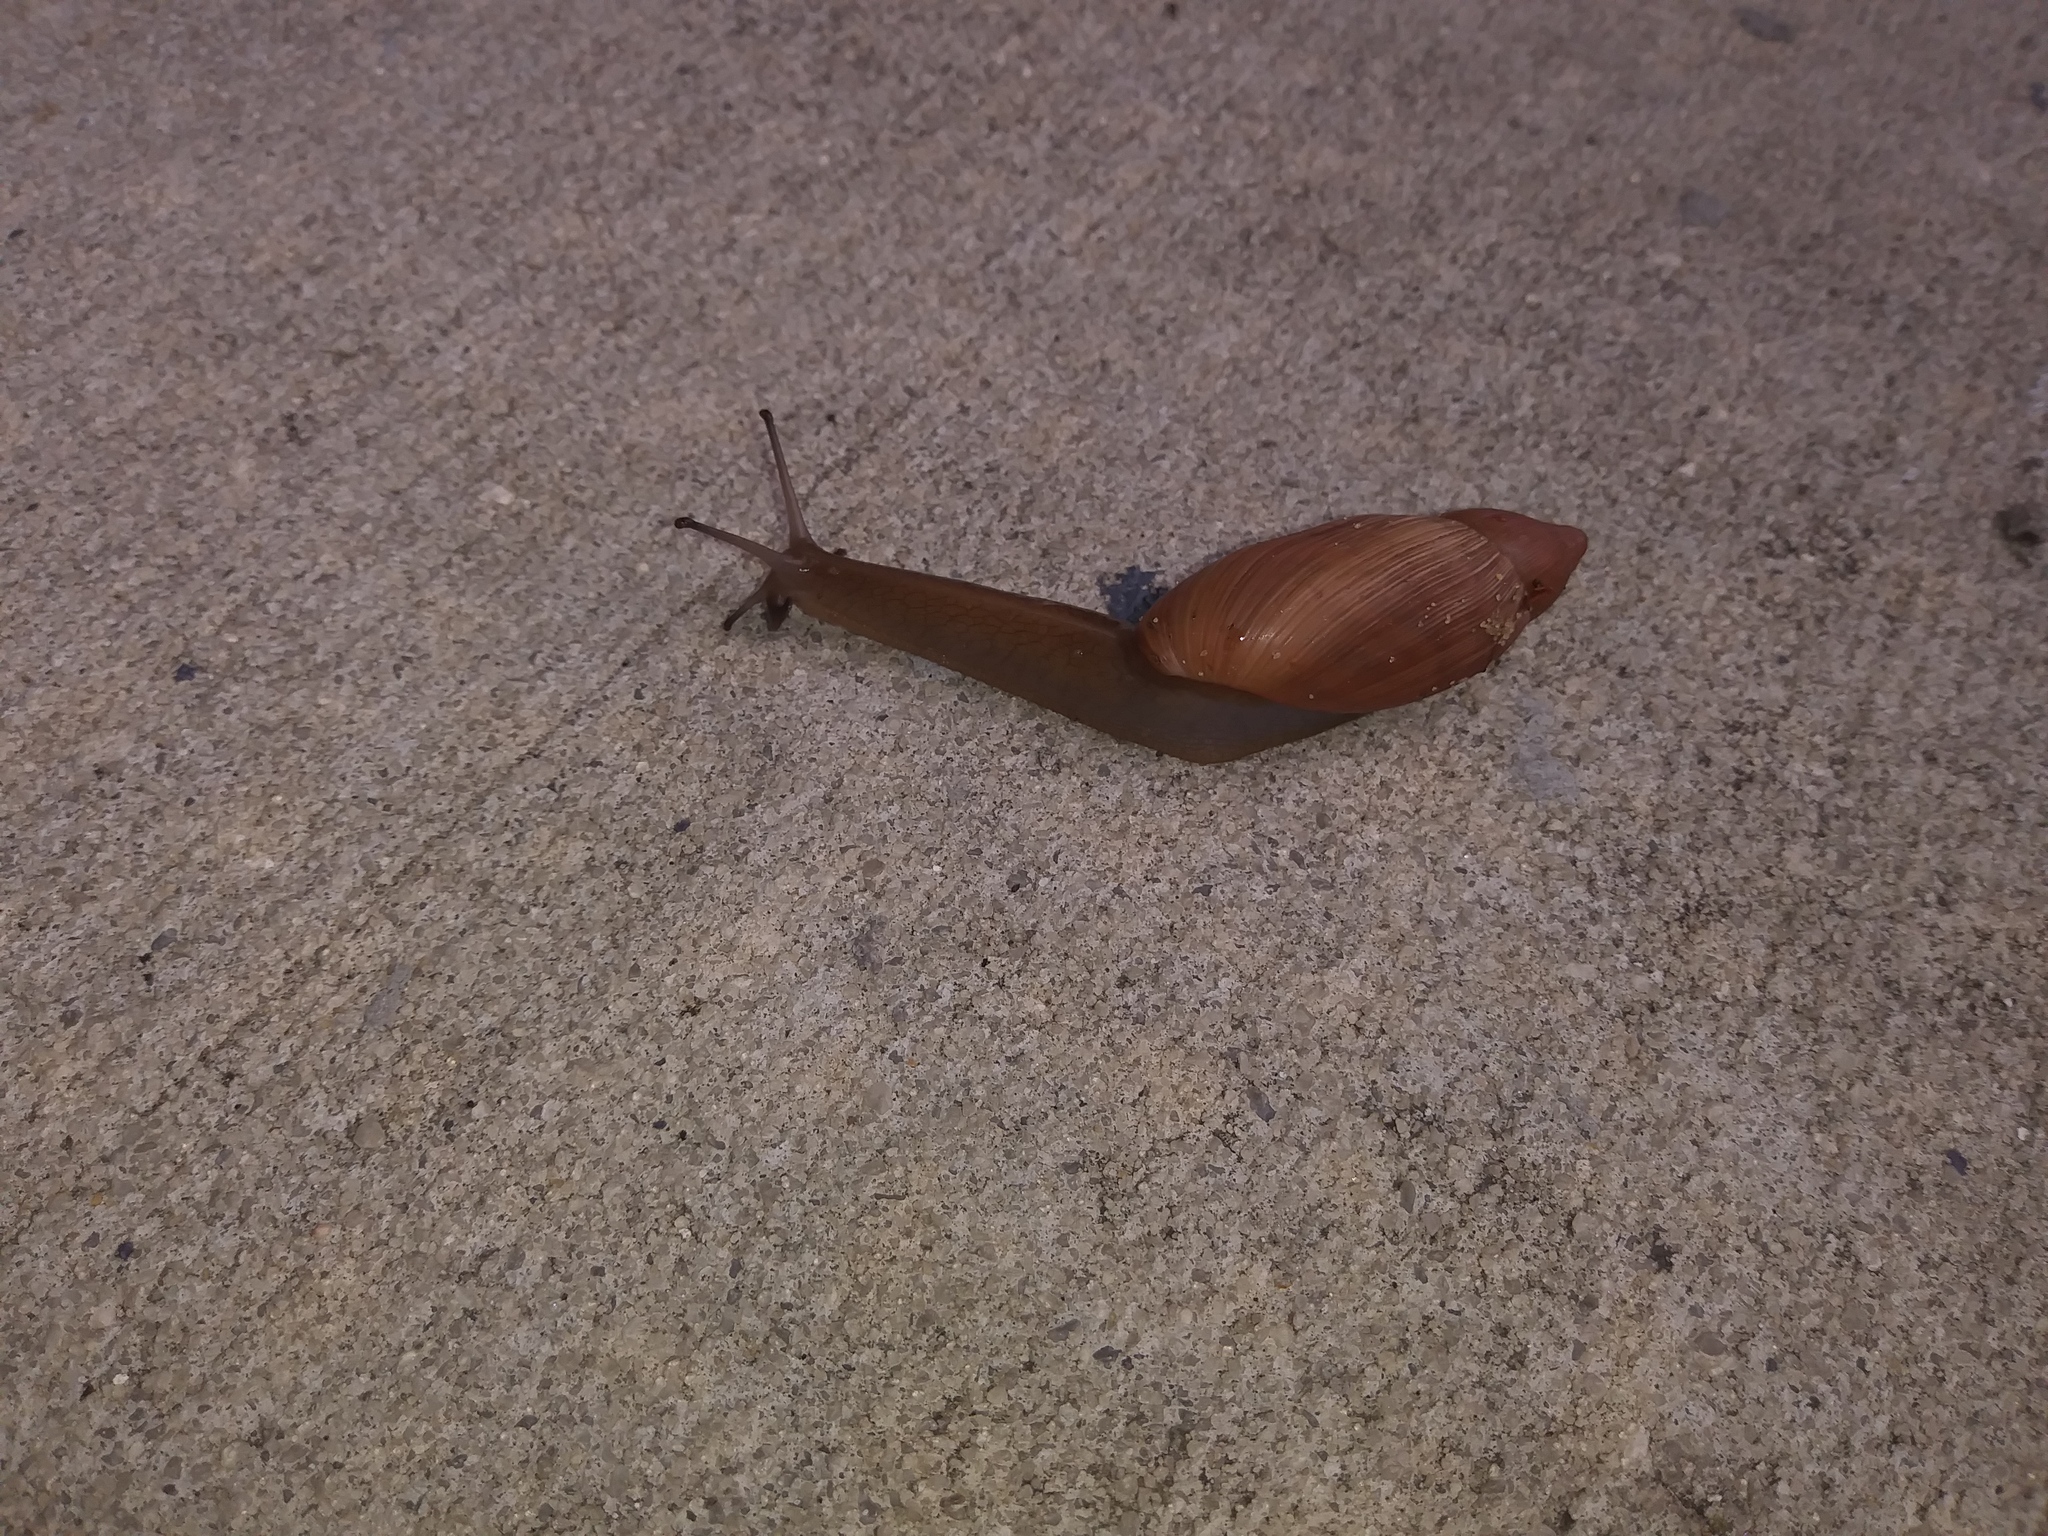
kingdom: Animalia
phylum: Mollusca
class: Gastropoda
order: Stylommatophora
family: Spiraxidae
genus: Euglandina
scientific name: Euglandina rosea
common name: Rosy wolfsnail
